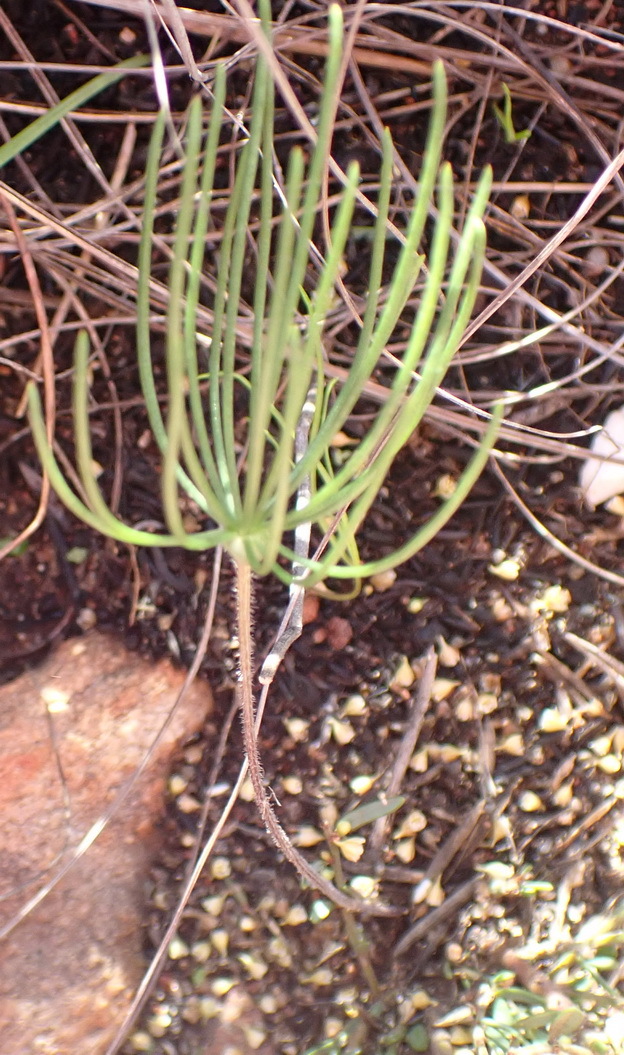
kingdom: Plantae
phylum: Tracheophyta
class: Liliopsida
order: Asparagales
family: Asparagaceae
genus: Eriospermum
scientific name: Eriospermum proliferum
